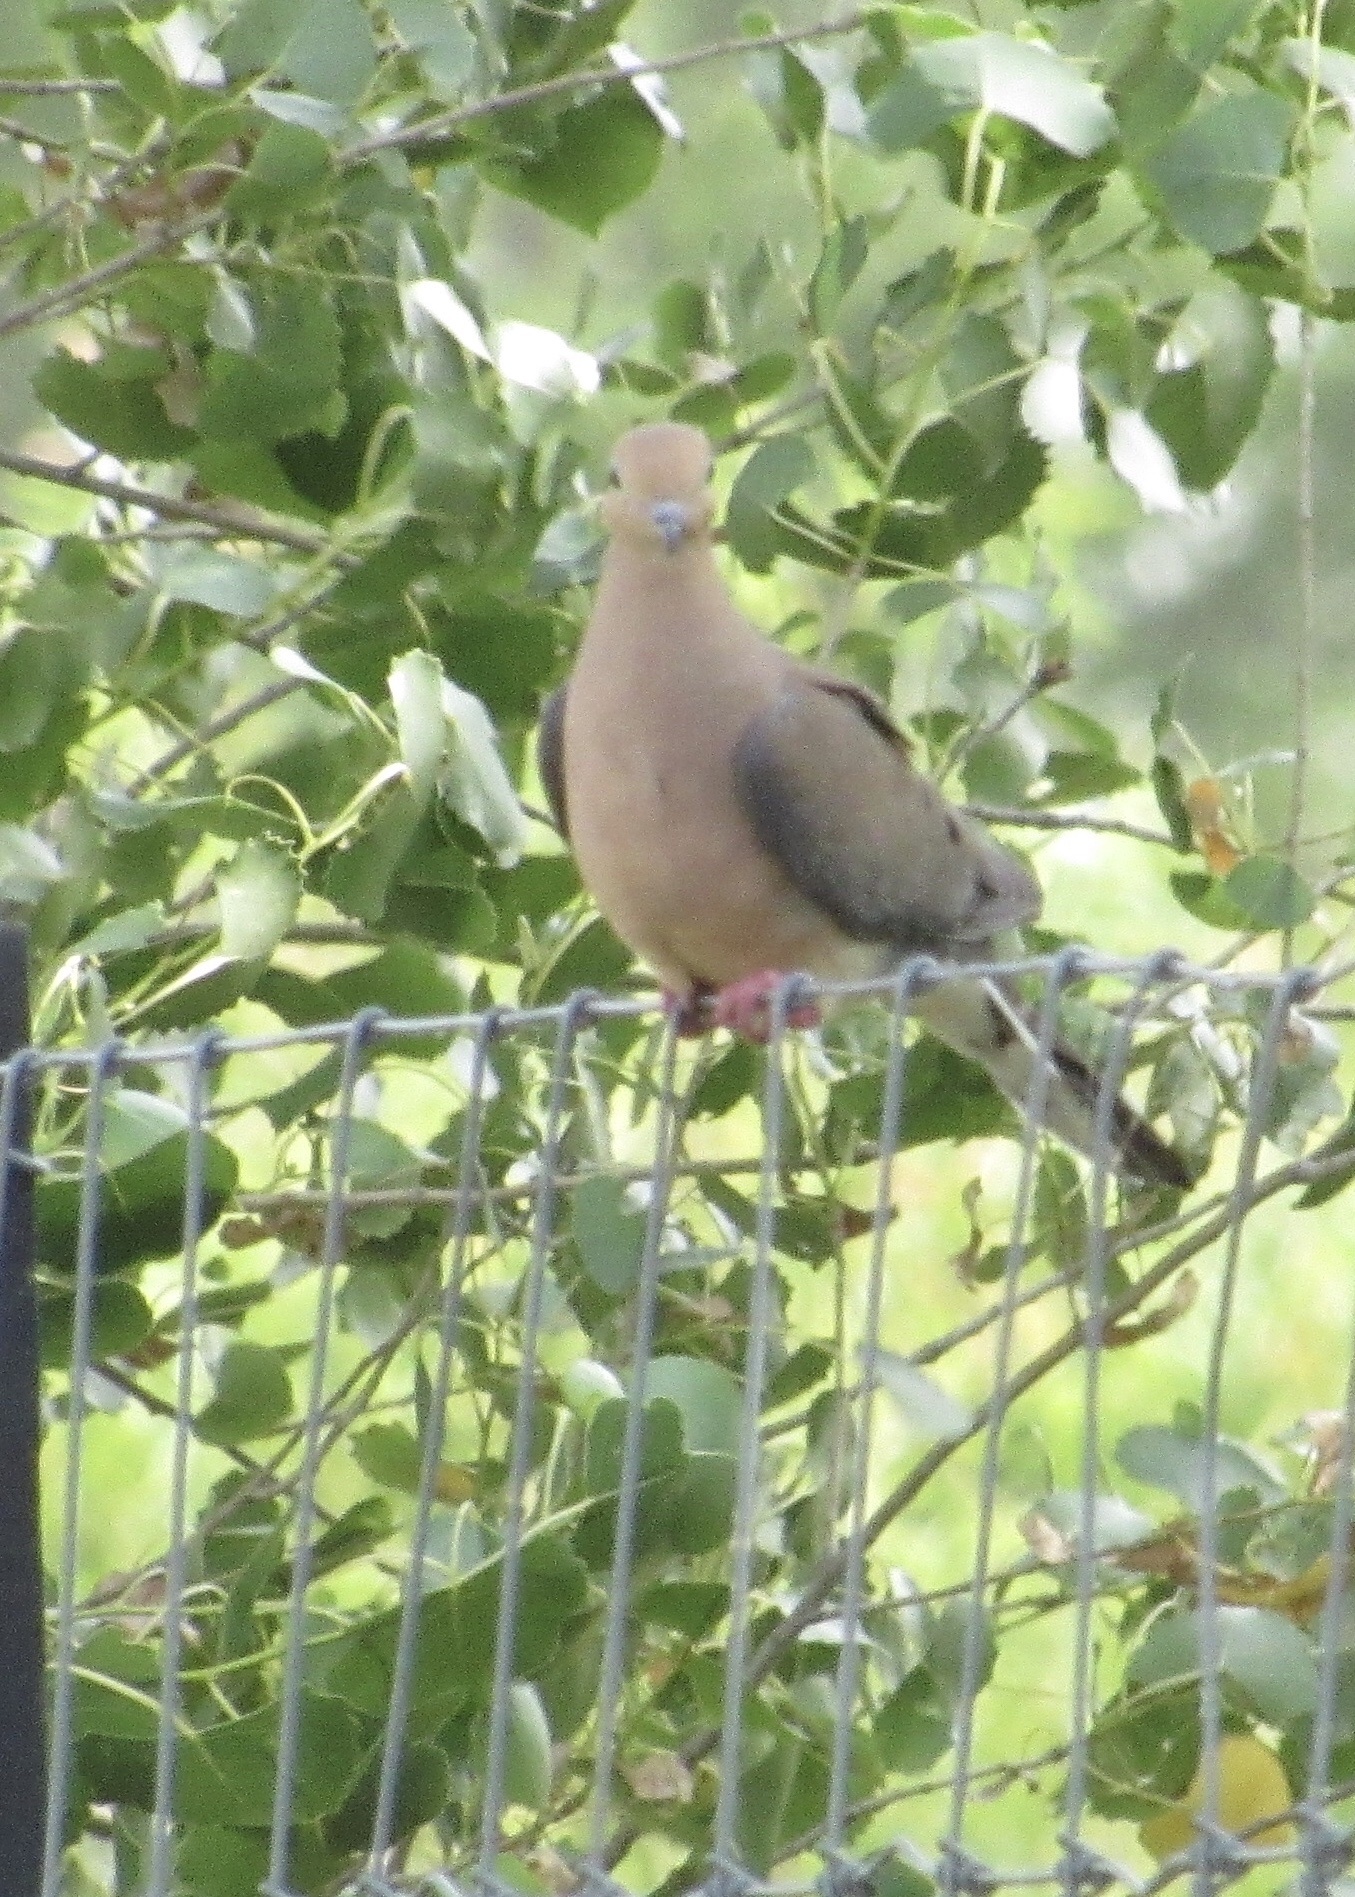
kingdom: Animalia
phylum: Chordata
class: Aves
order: Columbiformes
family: Columbidae
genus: Zenaida
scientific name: Zenaida macroura
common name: Mourning dove
